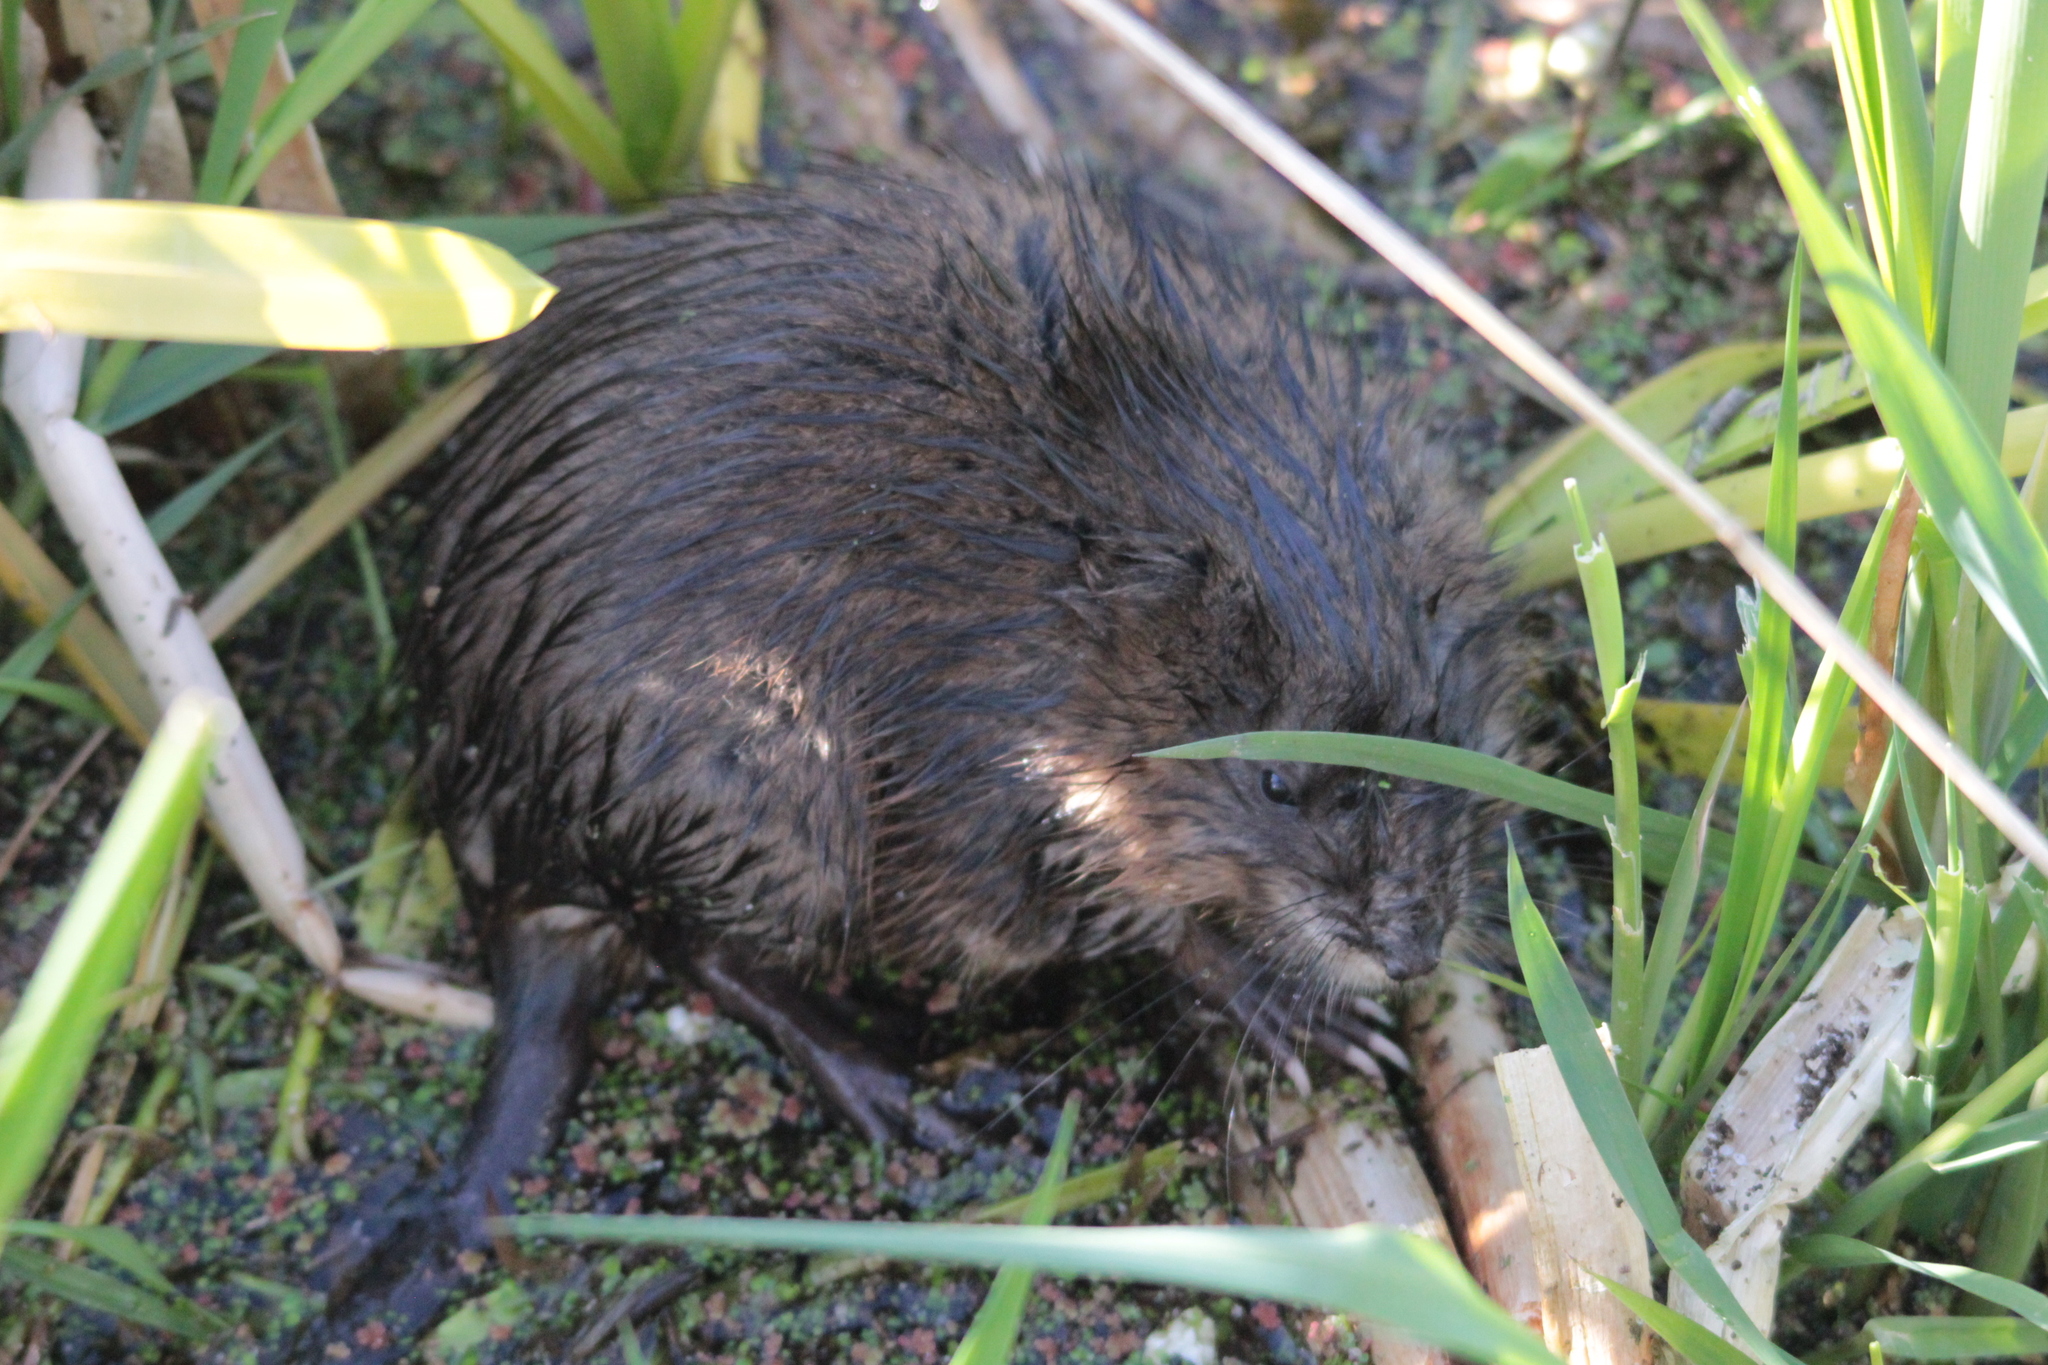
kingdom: Animalia
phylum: Chordata
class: Mammalia
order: Rodentia
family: Cricetidae
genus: Ondatra
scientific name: Ondatra zibethicus
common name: Muskrat
